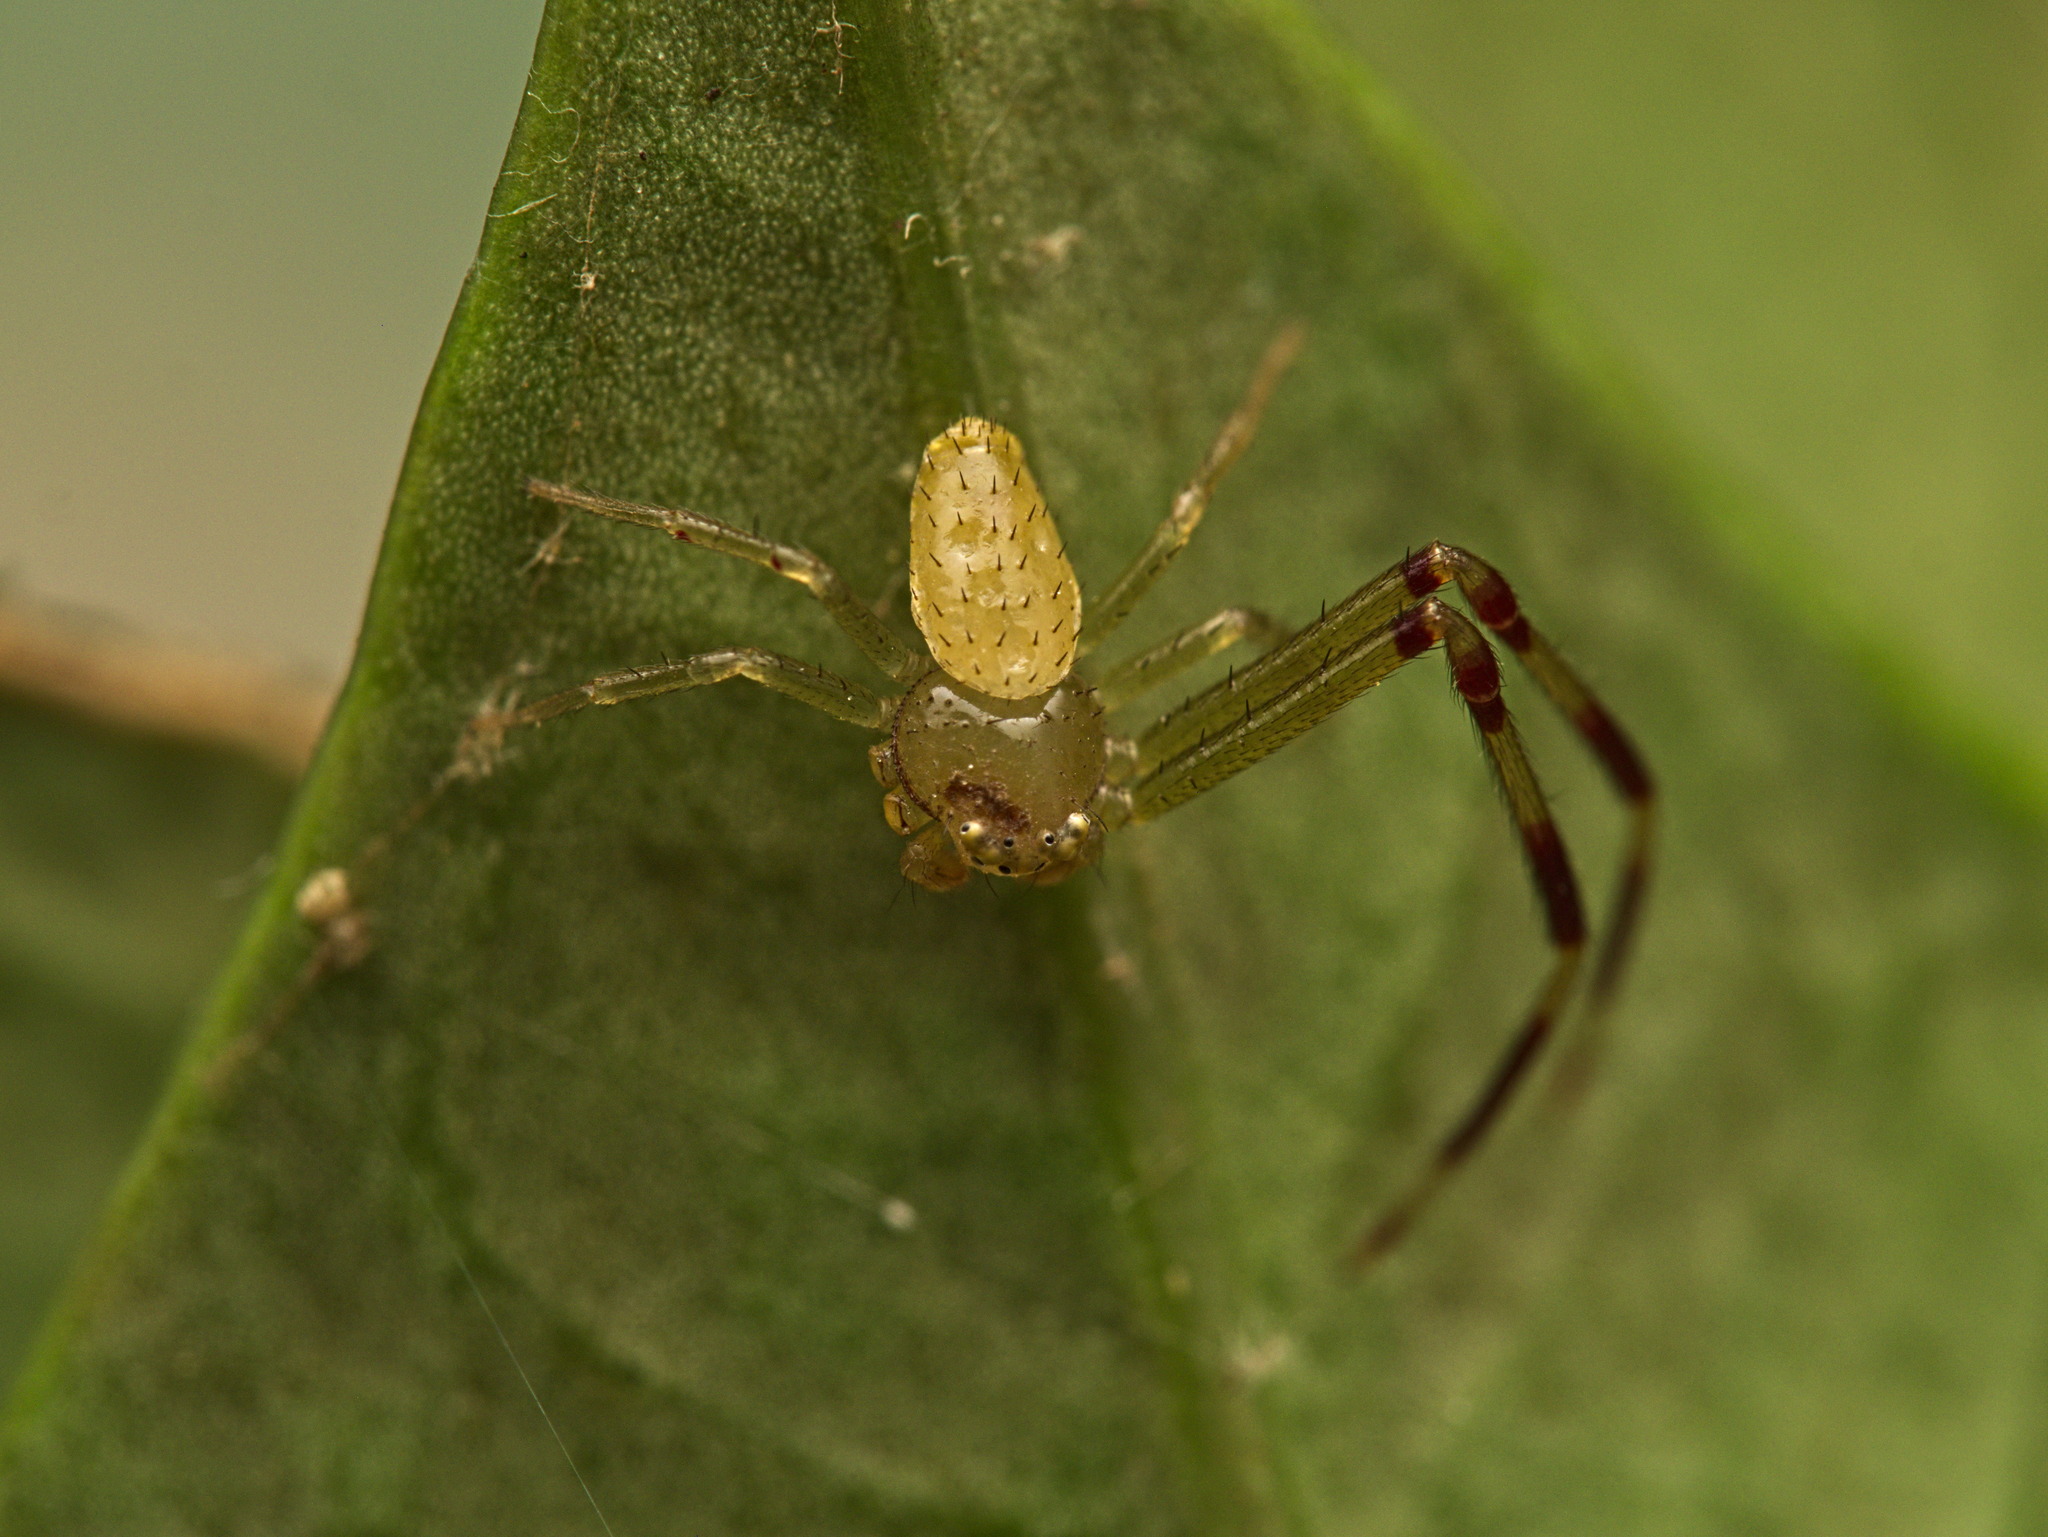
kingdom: Animalia
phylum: Arthropoda
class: Arachnida
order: Araneae
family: Thomisidae
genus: Misumessus
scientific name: Misumessus oblongus
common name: American green crab spider
